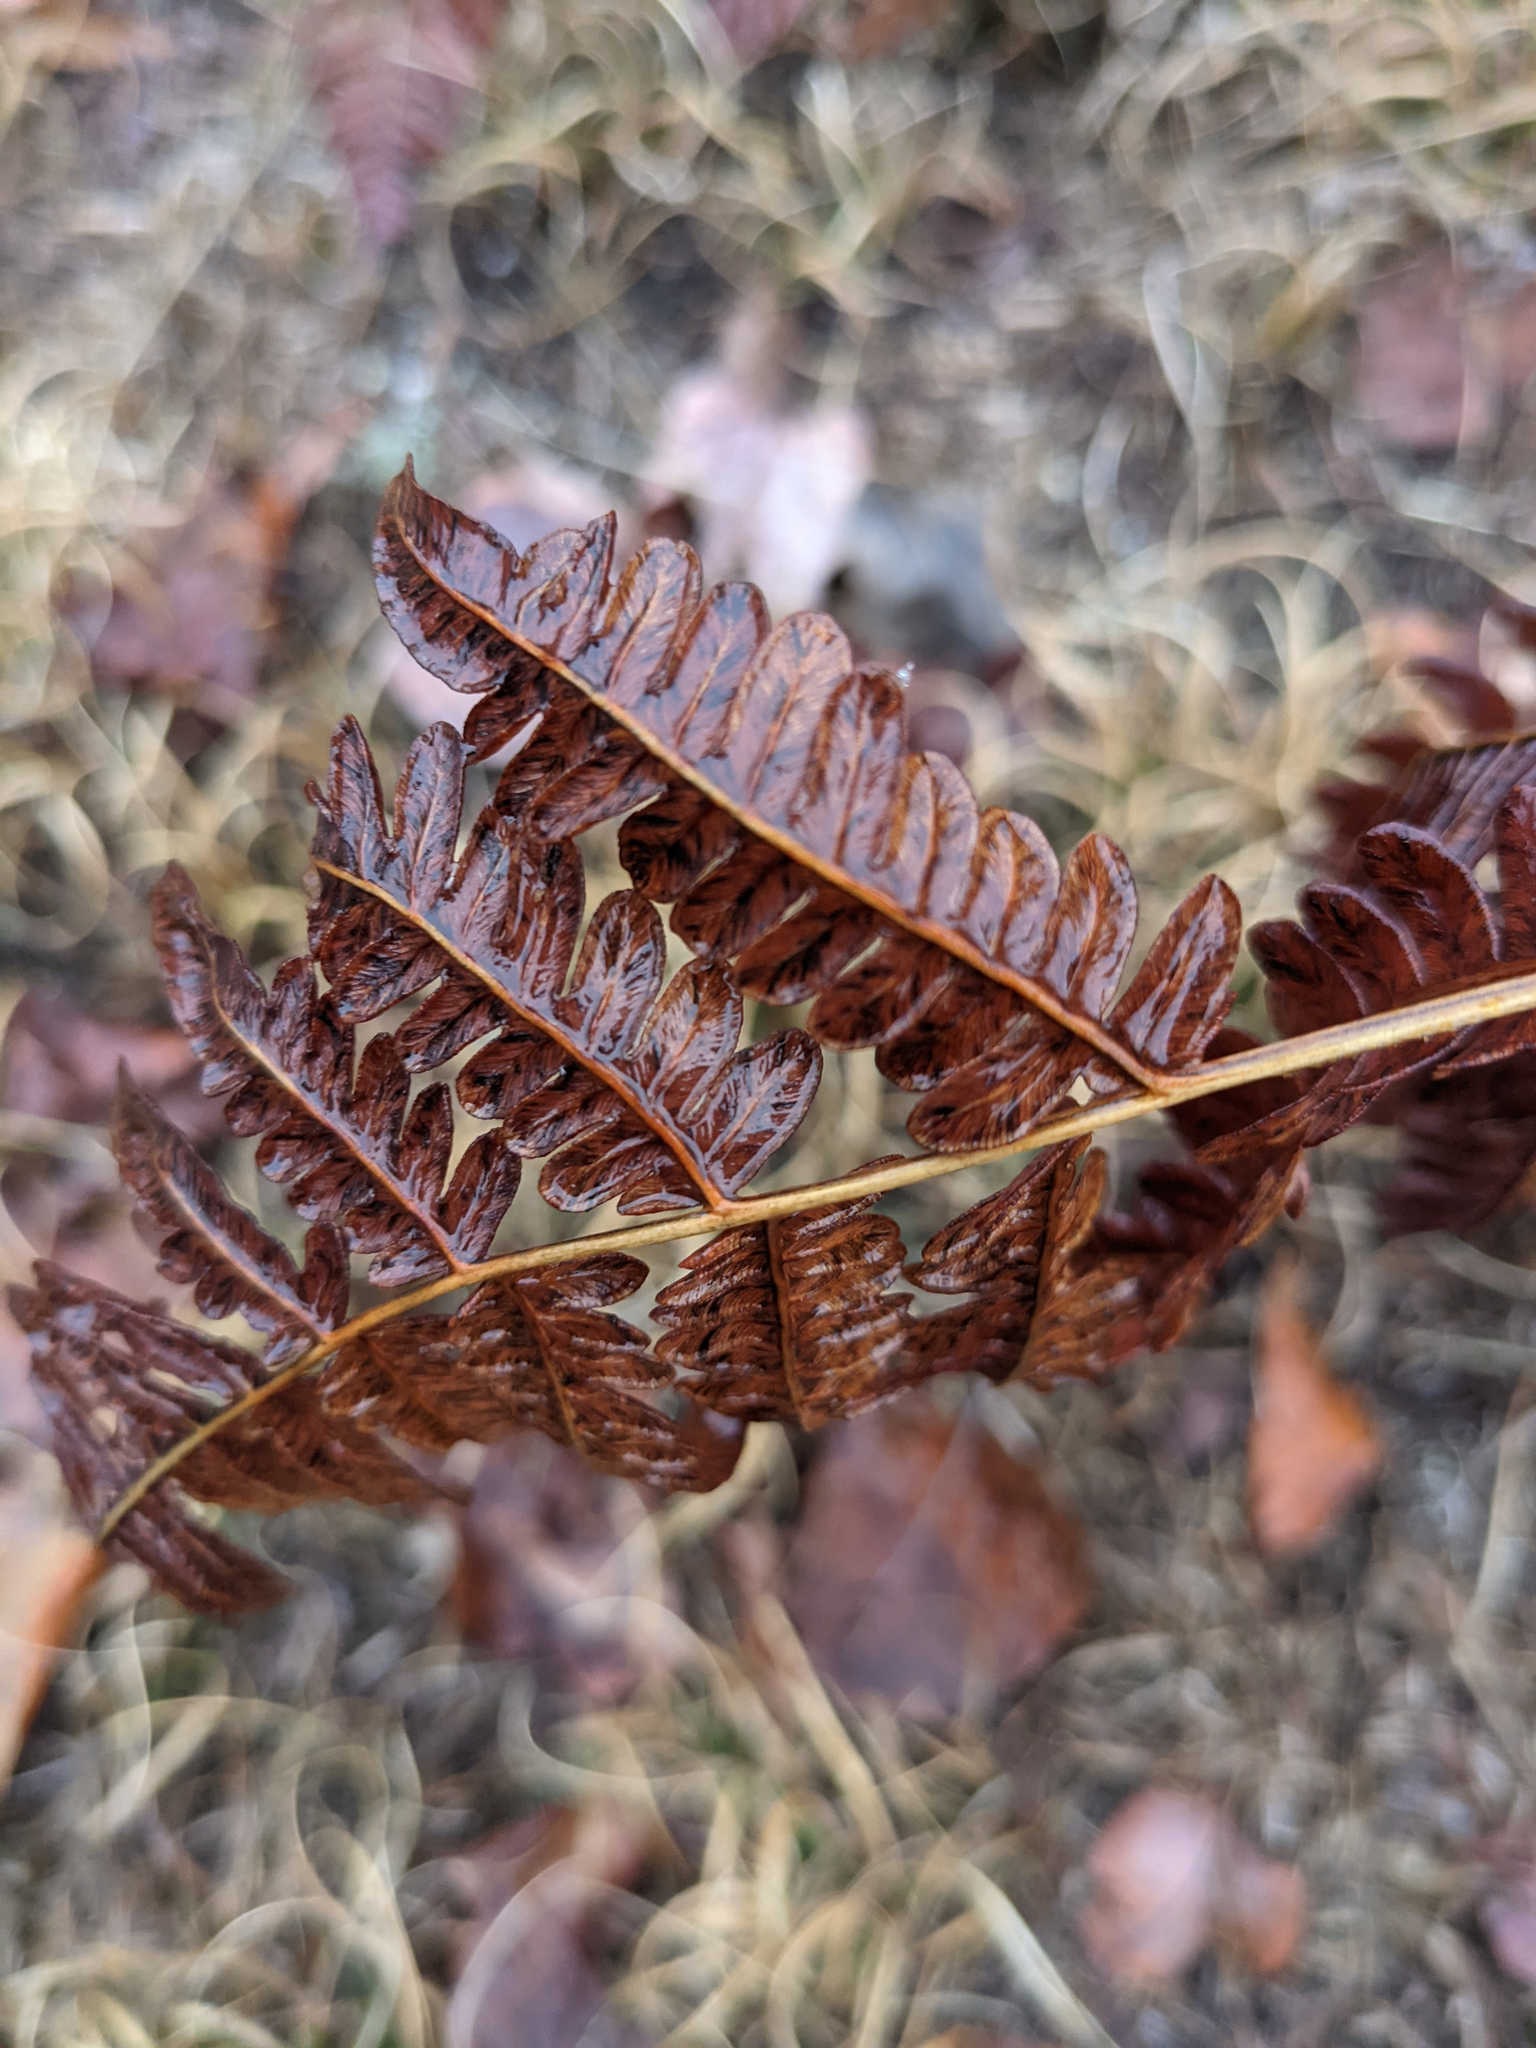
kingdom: Plantae
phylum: Tracheophyta
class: Polypodiopsida
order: Polypodiales
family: Dennstaedtiaceae
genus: Pteridium
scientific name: Pteridium aquilinum
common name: Bracken
